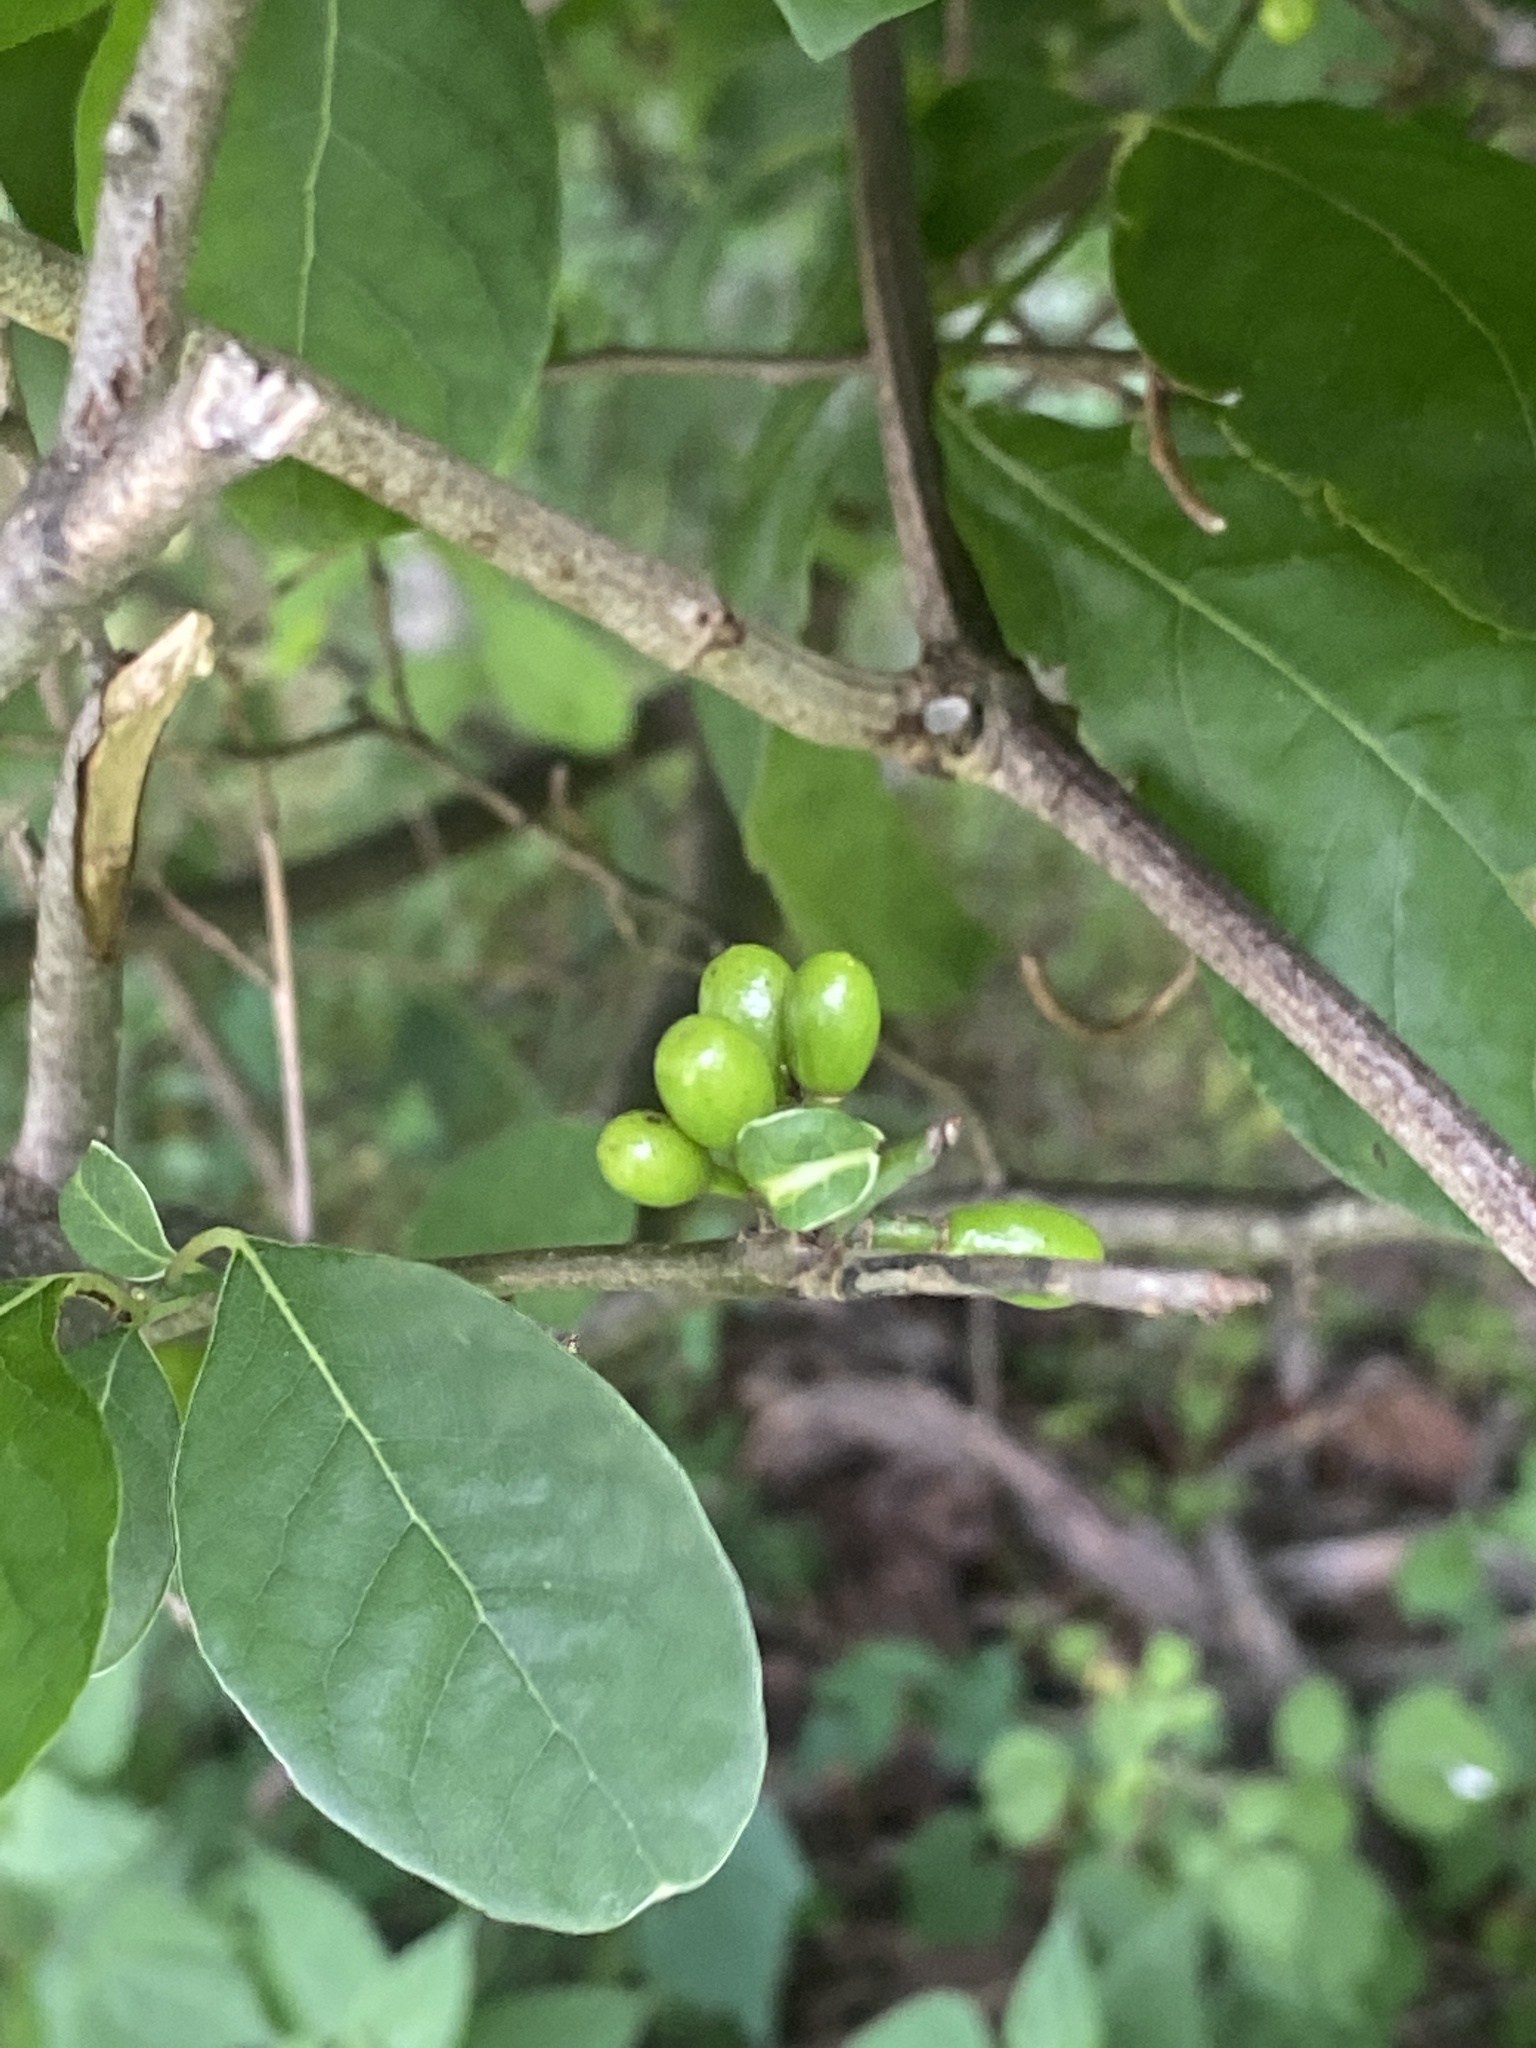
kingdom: Plantae
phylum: Tracheophyta
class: Magnoliopsida
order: Laurales
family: Lauraceae
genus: Lindera
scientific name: Lindera benzoin
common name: Spicebush
